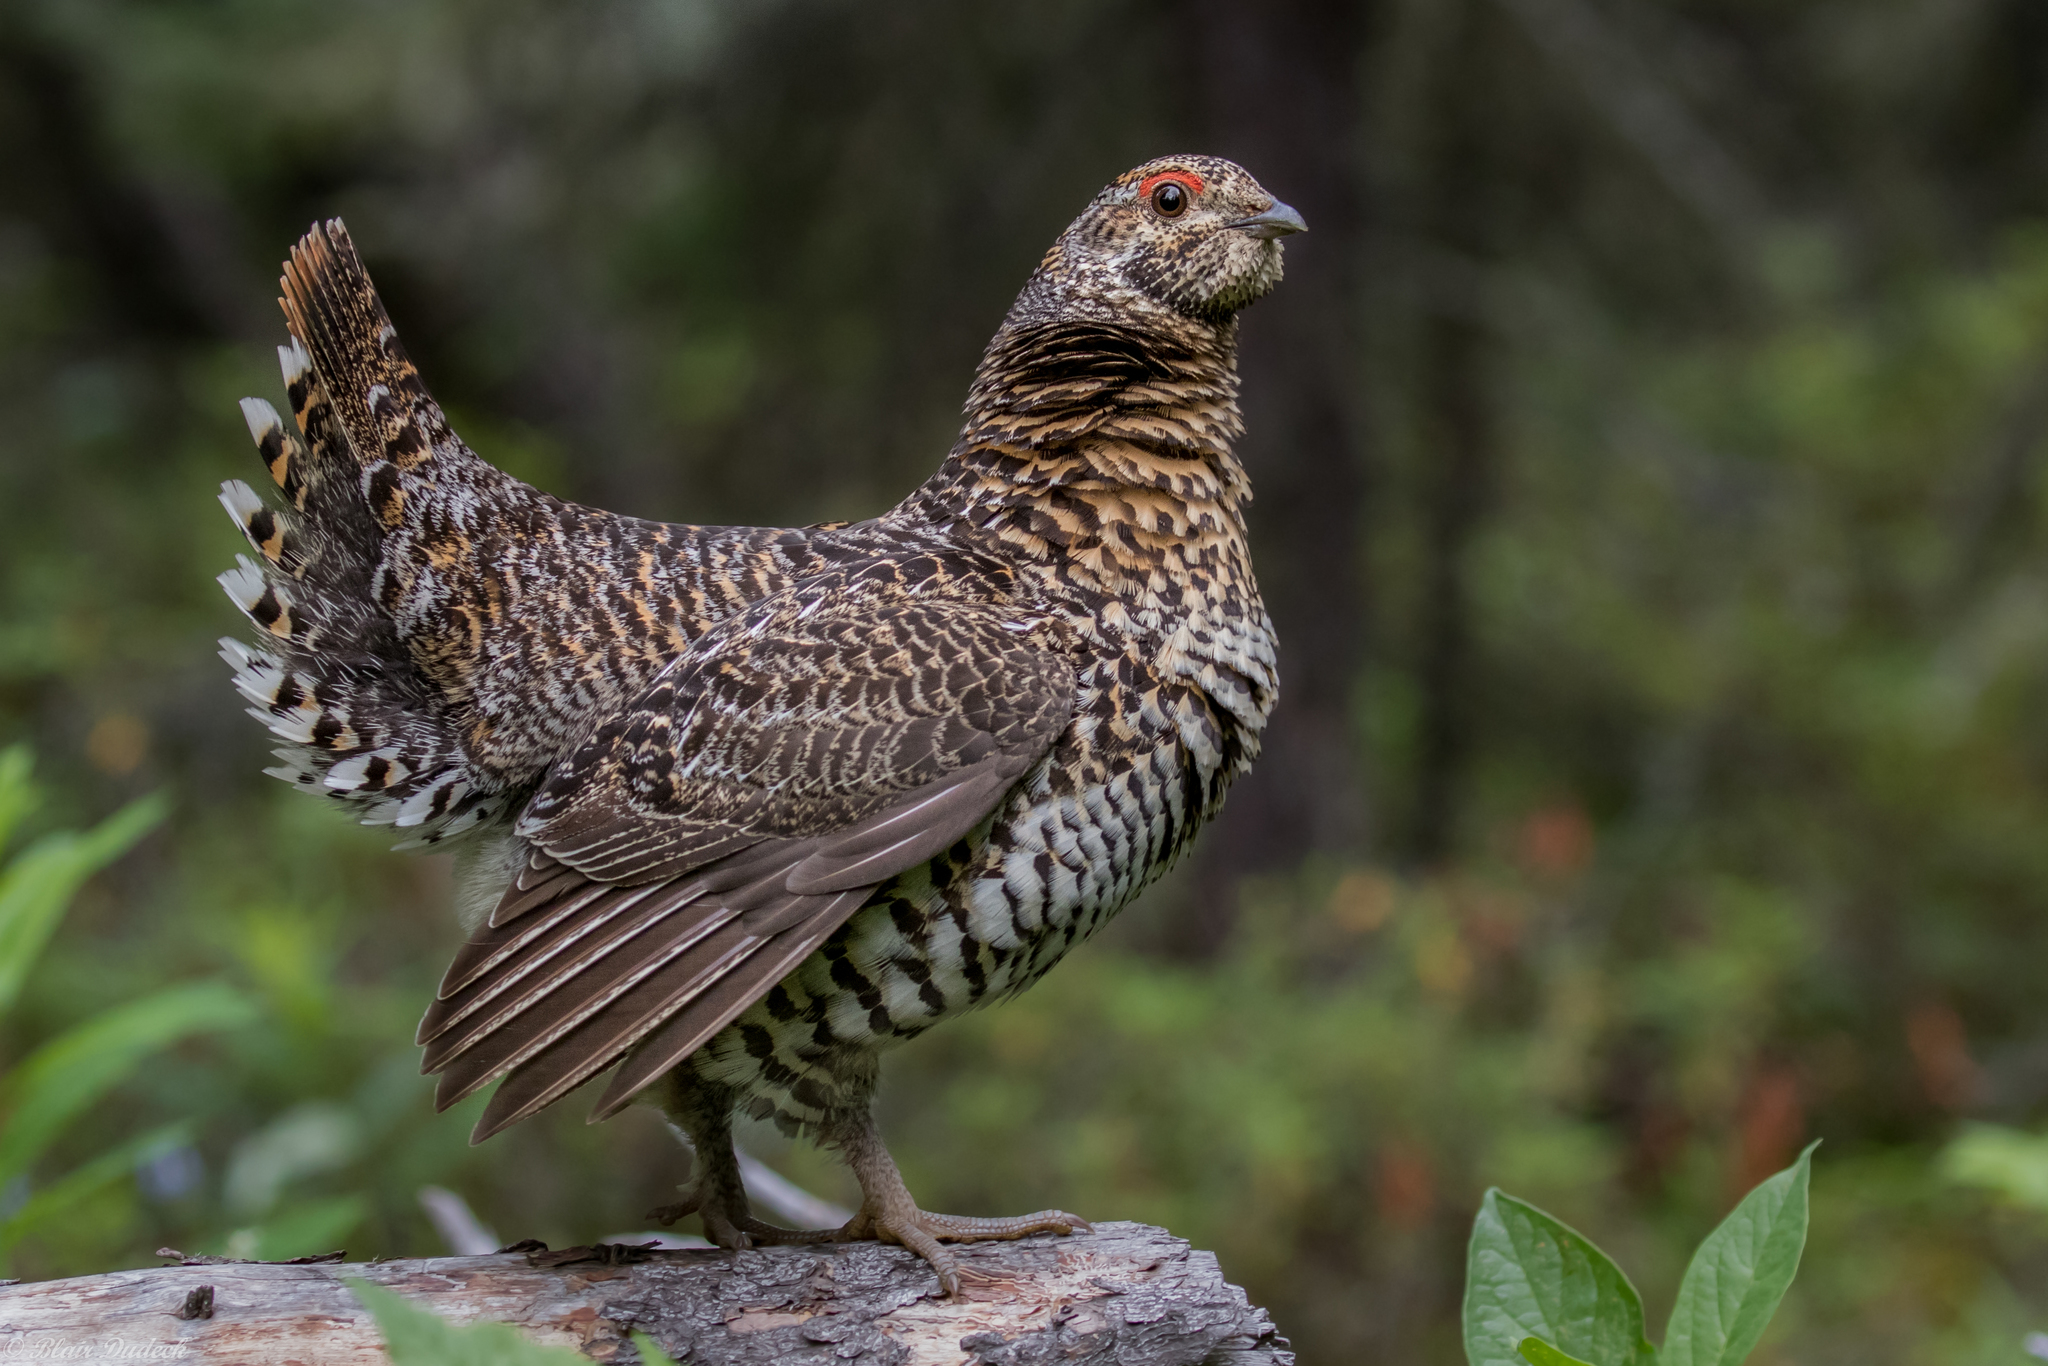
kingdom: Animalia
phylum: Chordata
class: Aves
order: Galliformes
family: Phasianidae
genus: Canachites
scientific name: Canachites canadensis
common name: Spruce grouse
